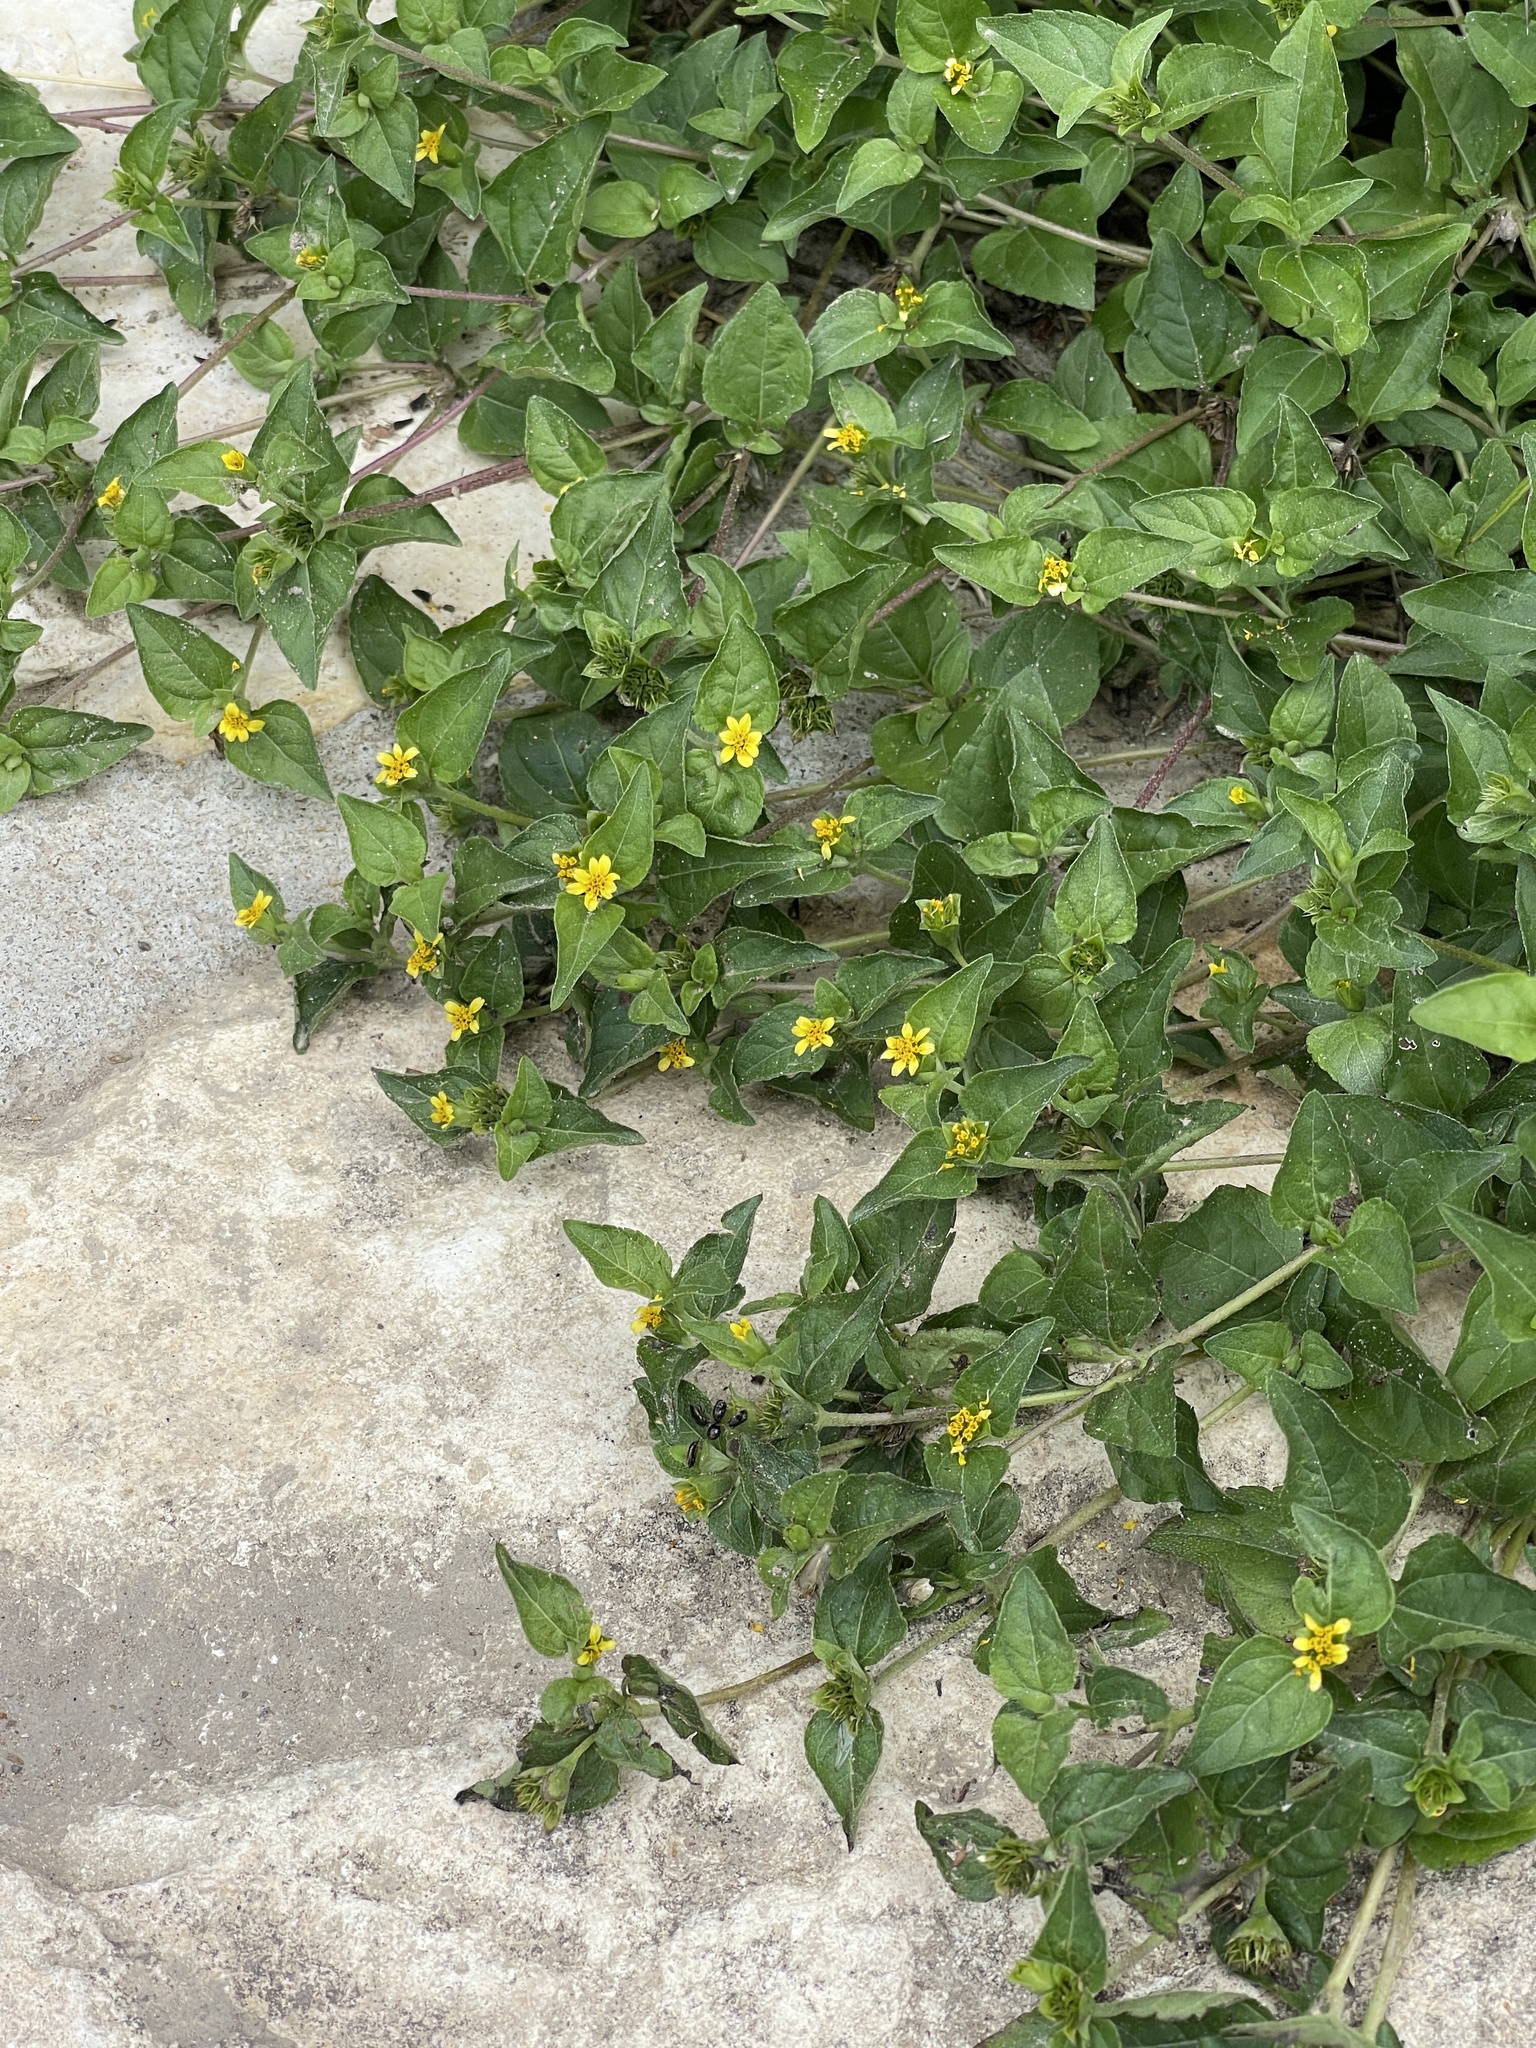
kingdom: Plantae
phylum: Tracheophyta
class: Magnoliopsida
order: Asterales
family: Asteraceae
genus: Calyptocarpus
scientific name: Calyptocarpus vialis
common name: Straggler daisy
